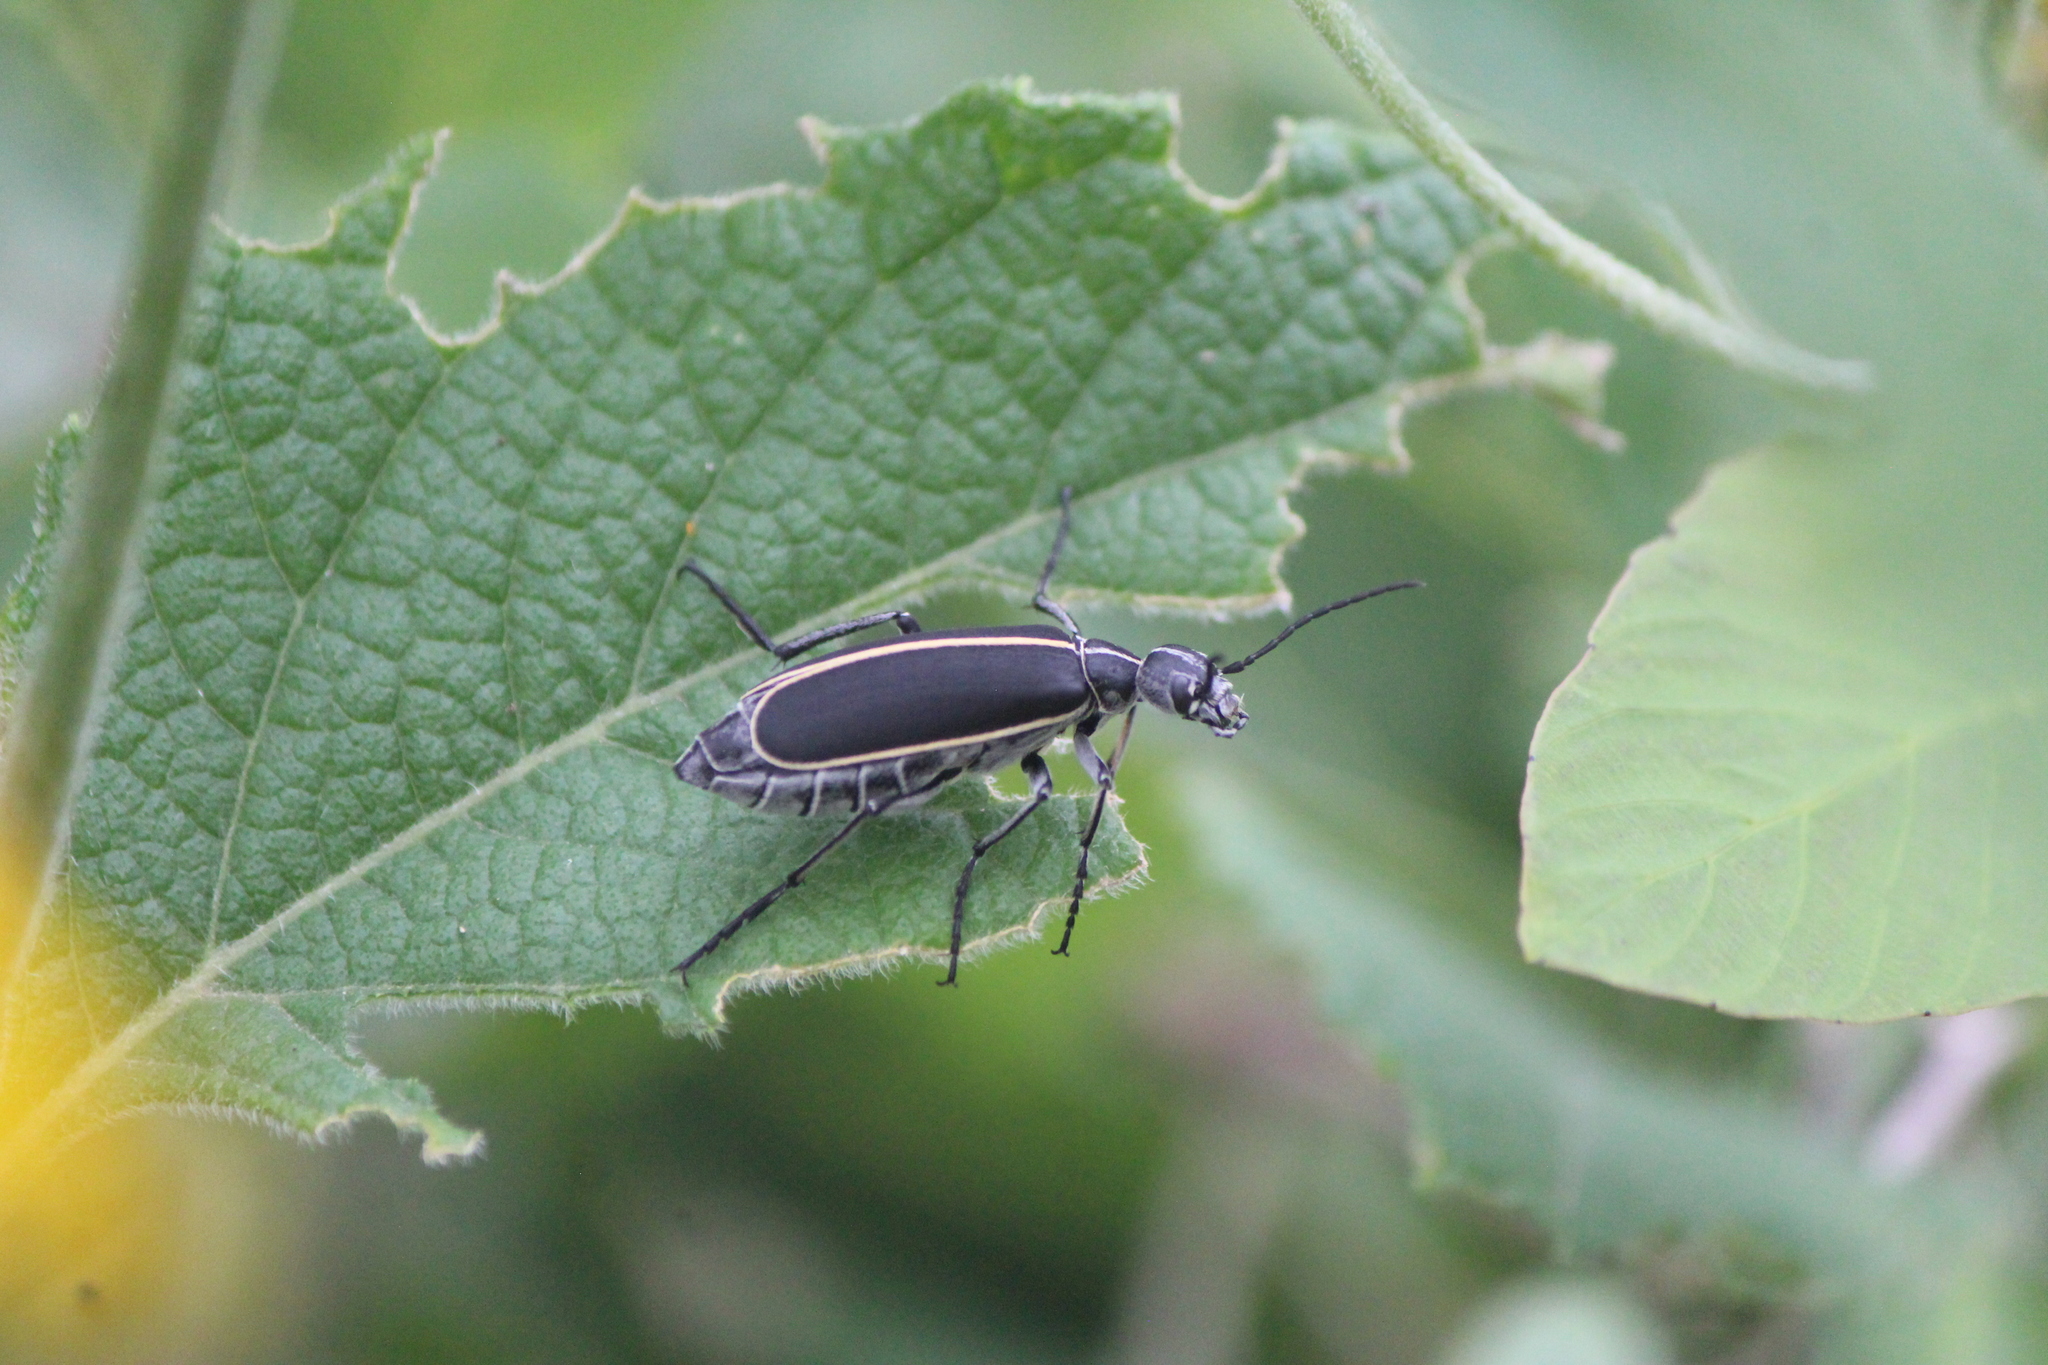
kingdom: Animalia
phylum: Arthropoda
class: Insecta
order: Coleoptera
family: Meloidae
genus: Epicauta
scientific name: Epicauta major
